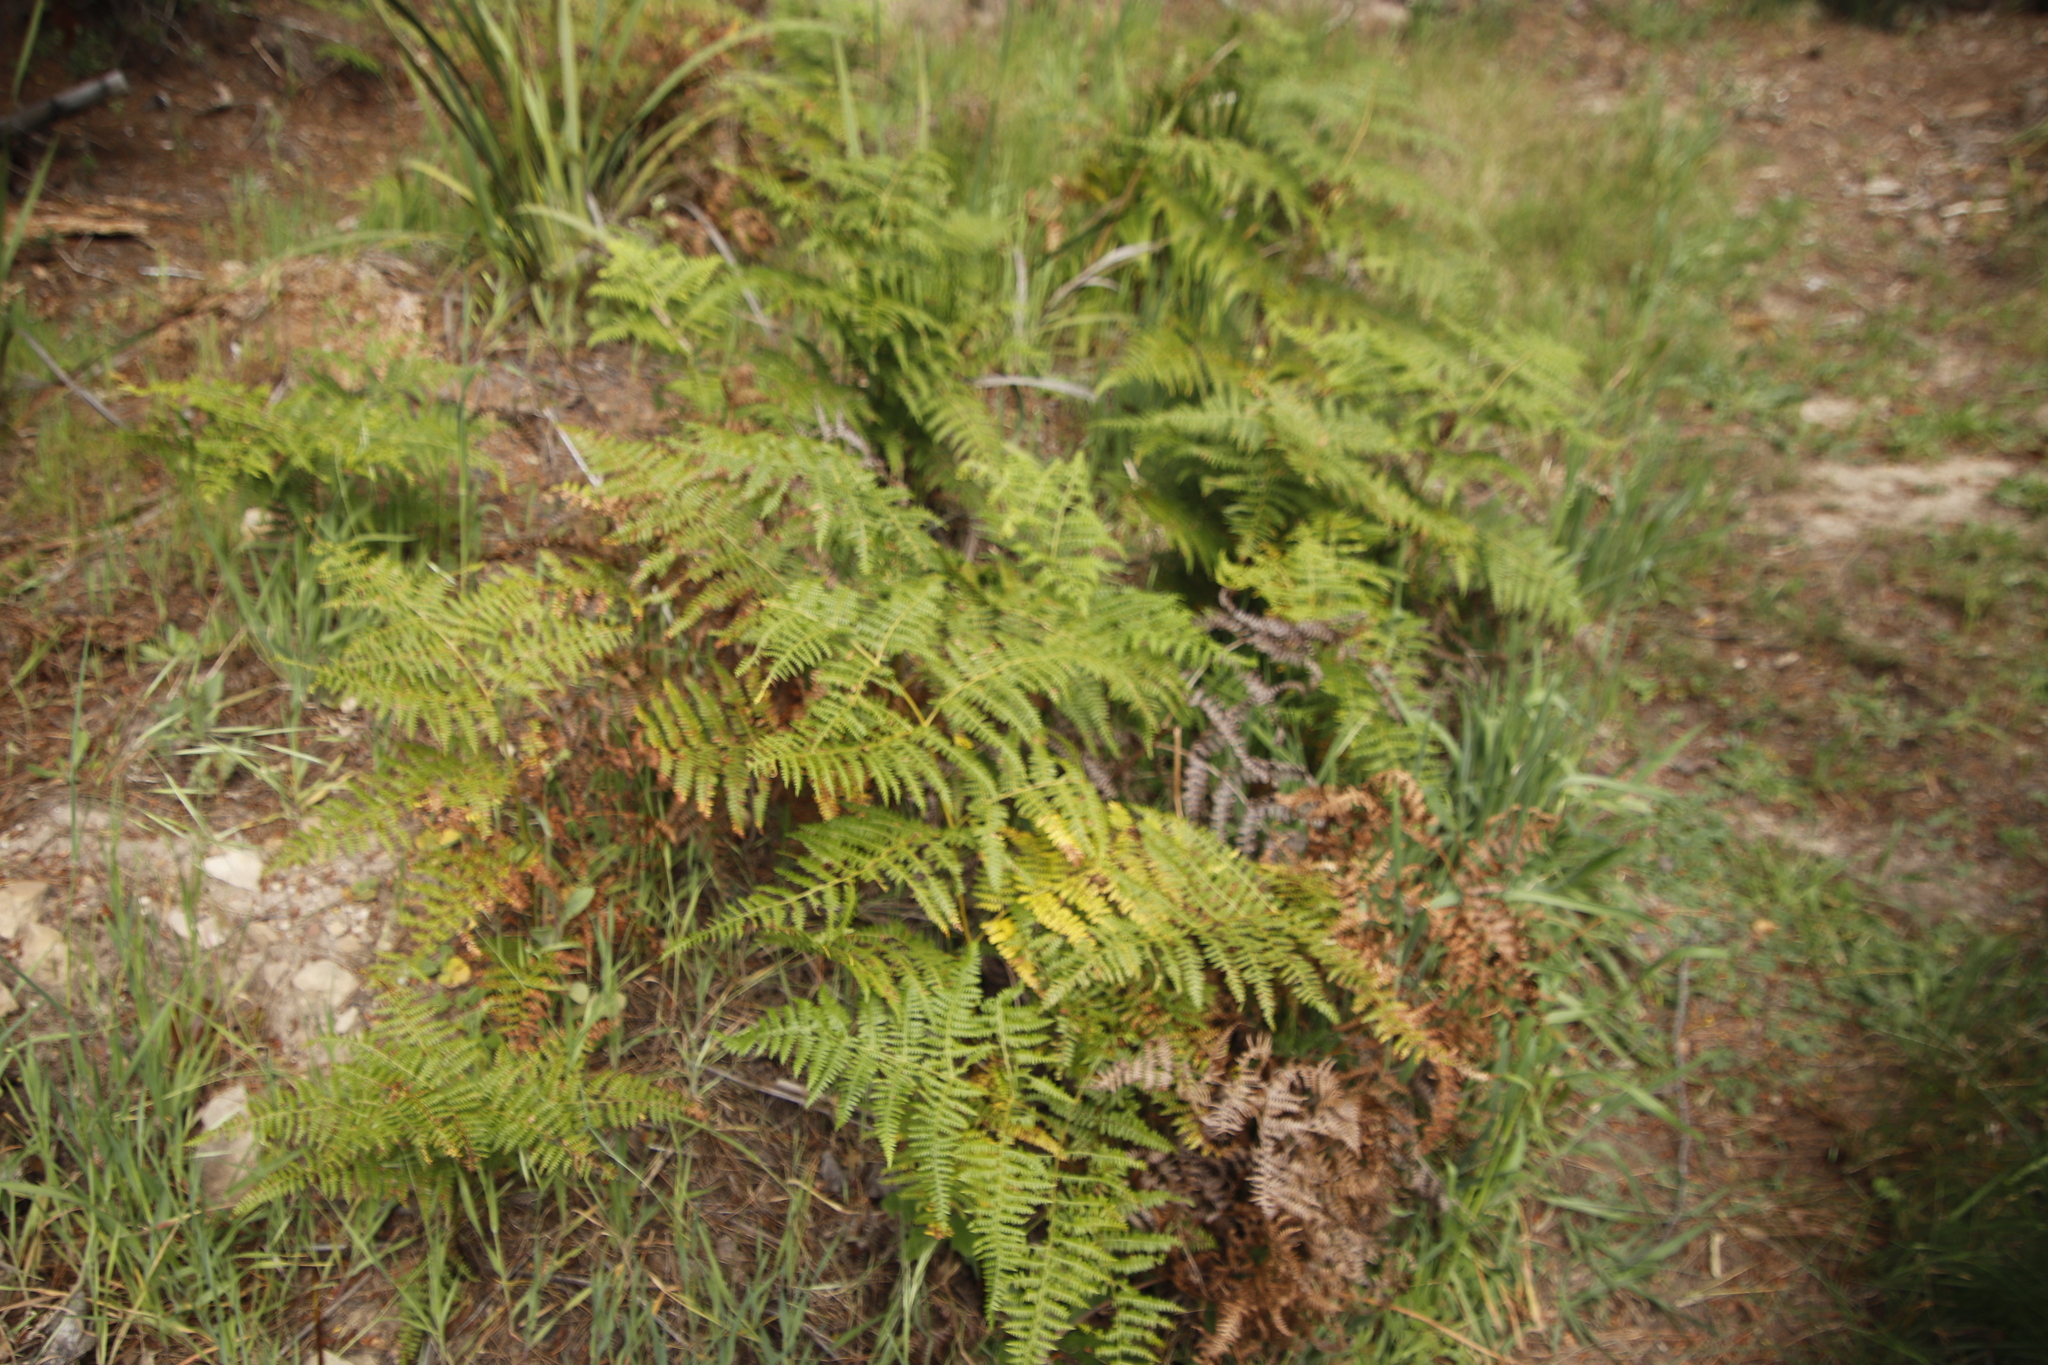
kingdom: Plantae
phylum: Tracheophyta
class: Polypodiopsida
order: Polypodiales
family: Dennstaedtiaceae
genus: Pteridium
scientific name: Pteridium aquilinum
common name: Bracken
